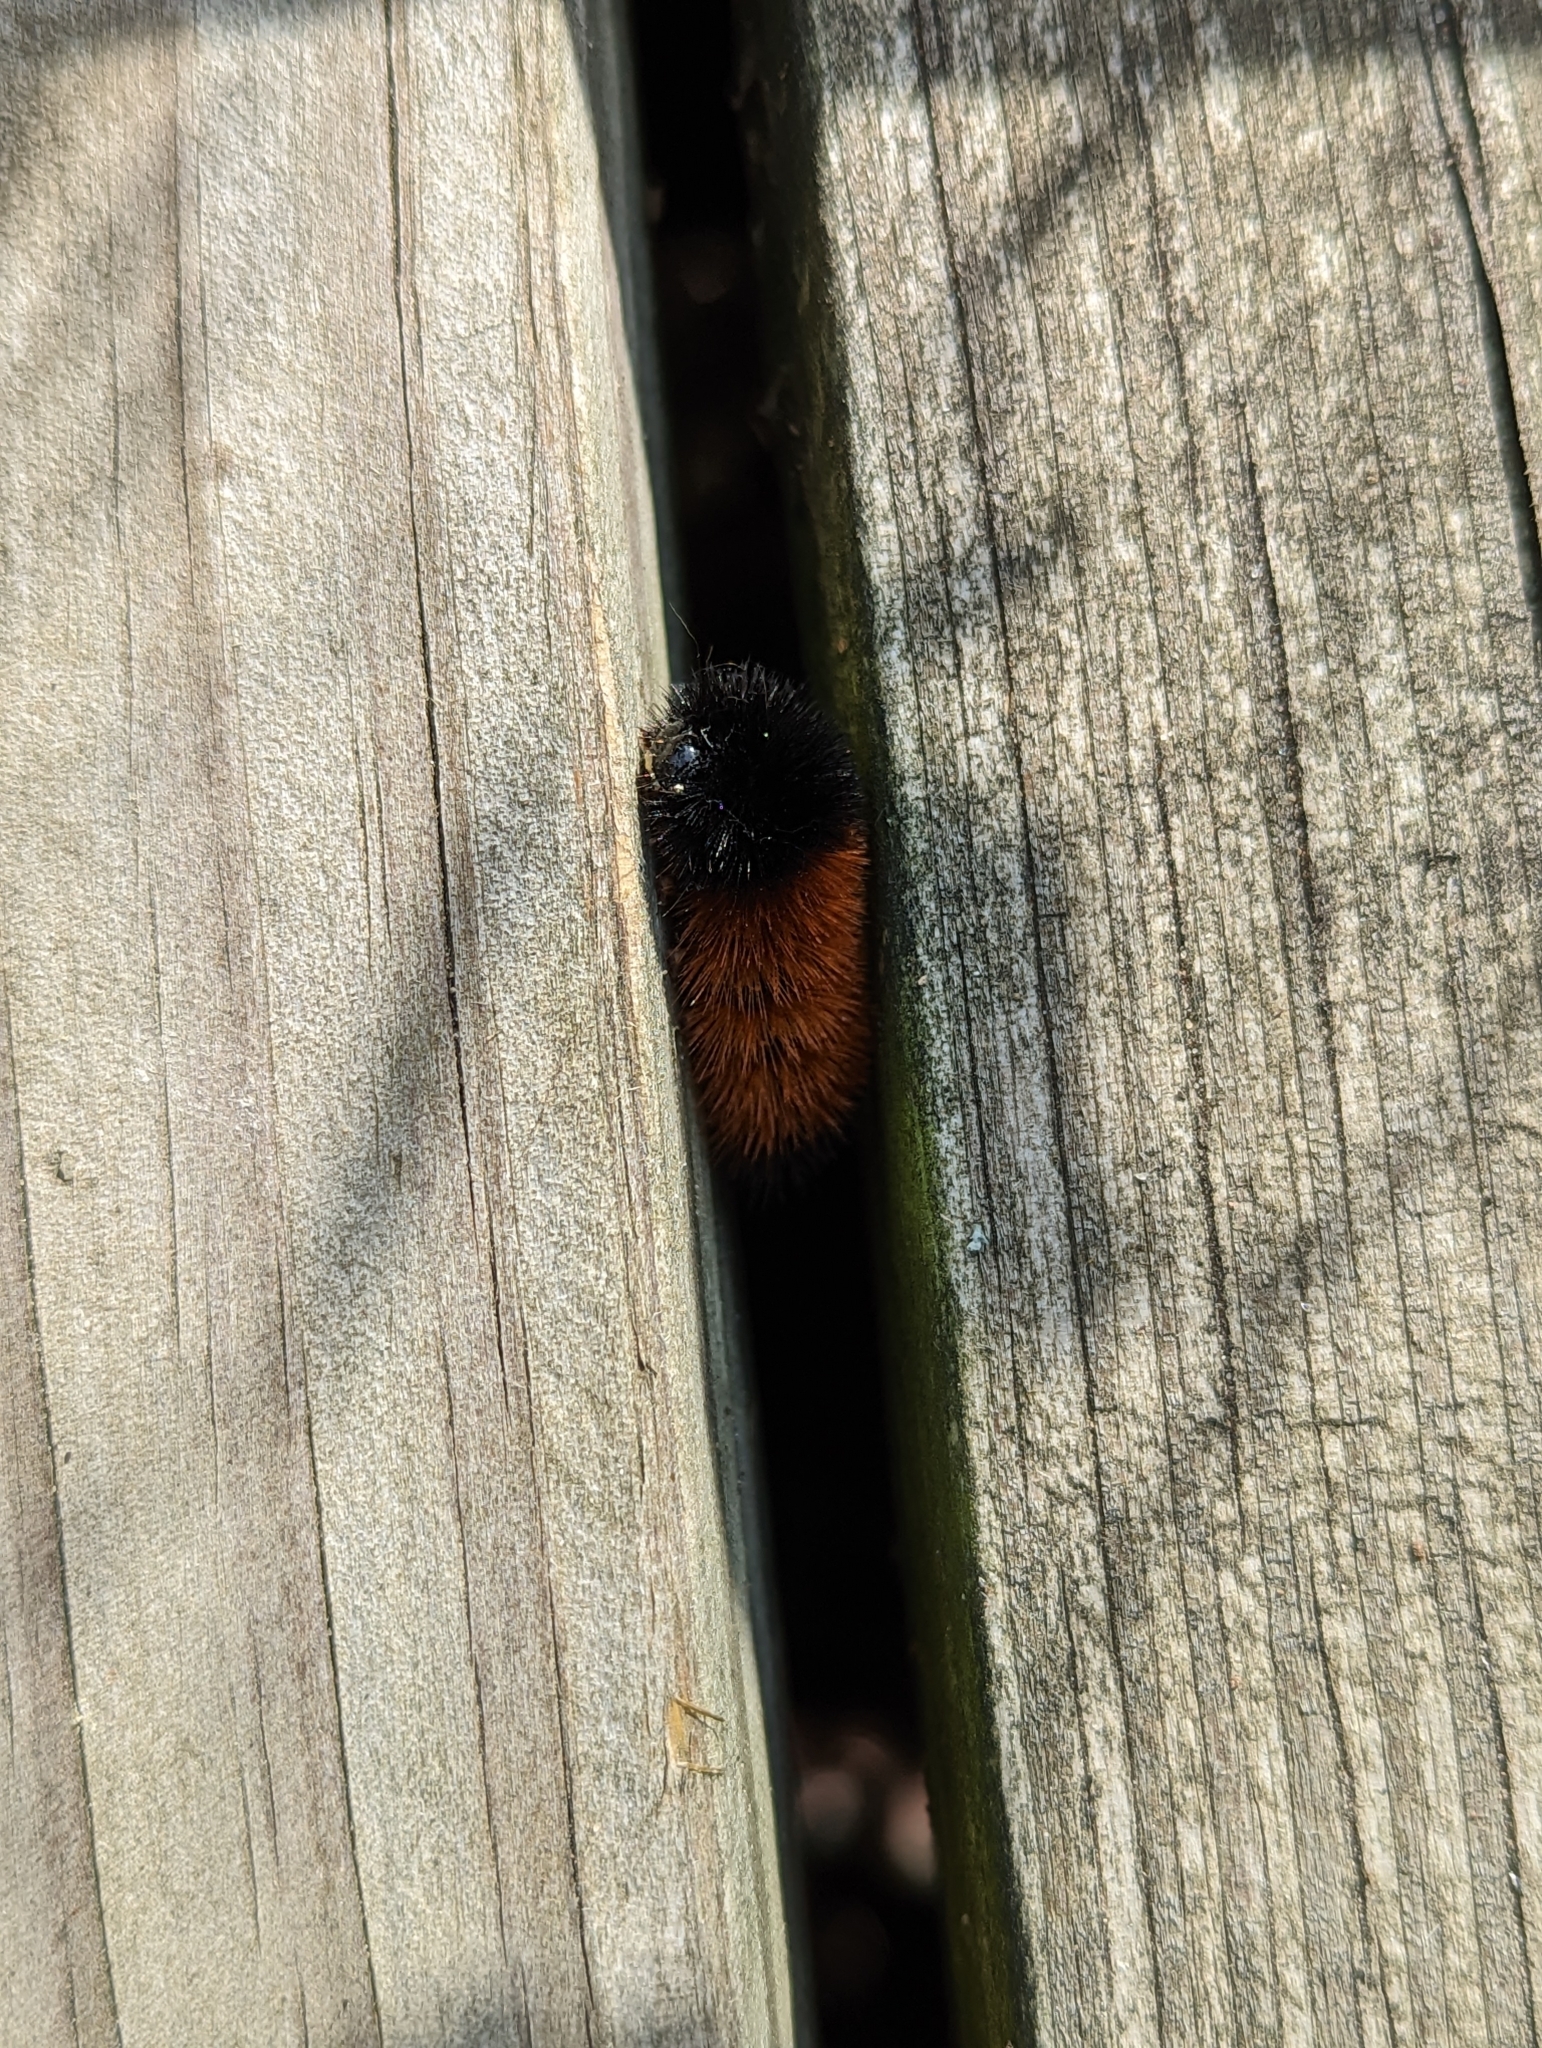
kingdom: Animalia
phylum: Arthropoda
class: Insecta
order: Lepidoptera
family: Erebidae
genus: Pyrrharctia
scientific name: Pyrrharctia isabella
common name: Isabella tiger moth
